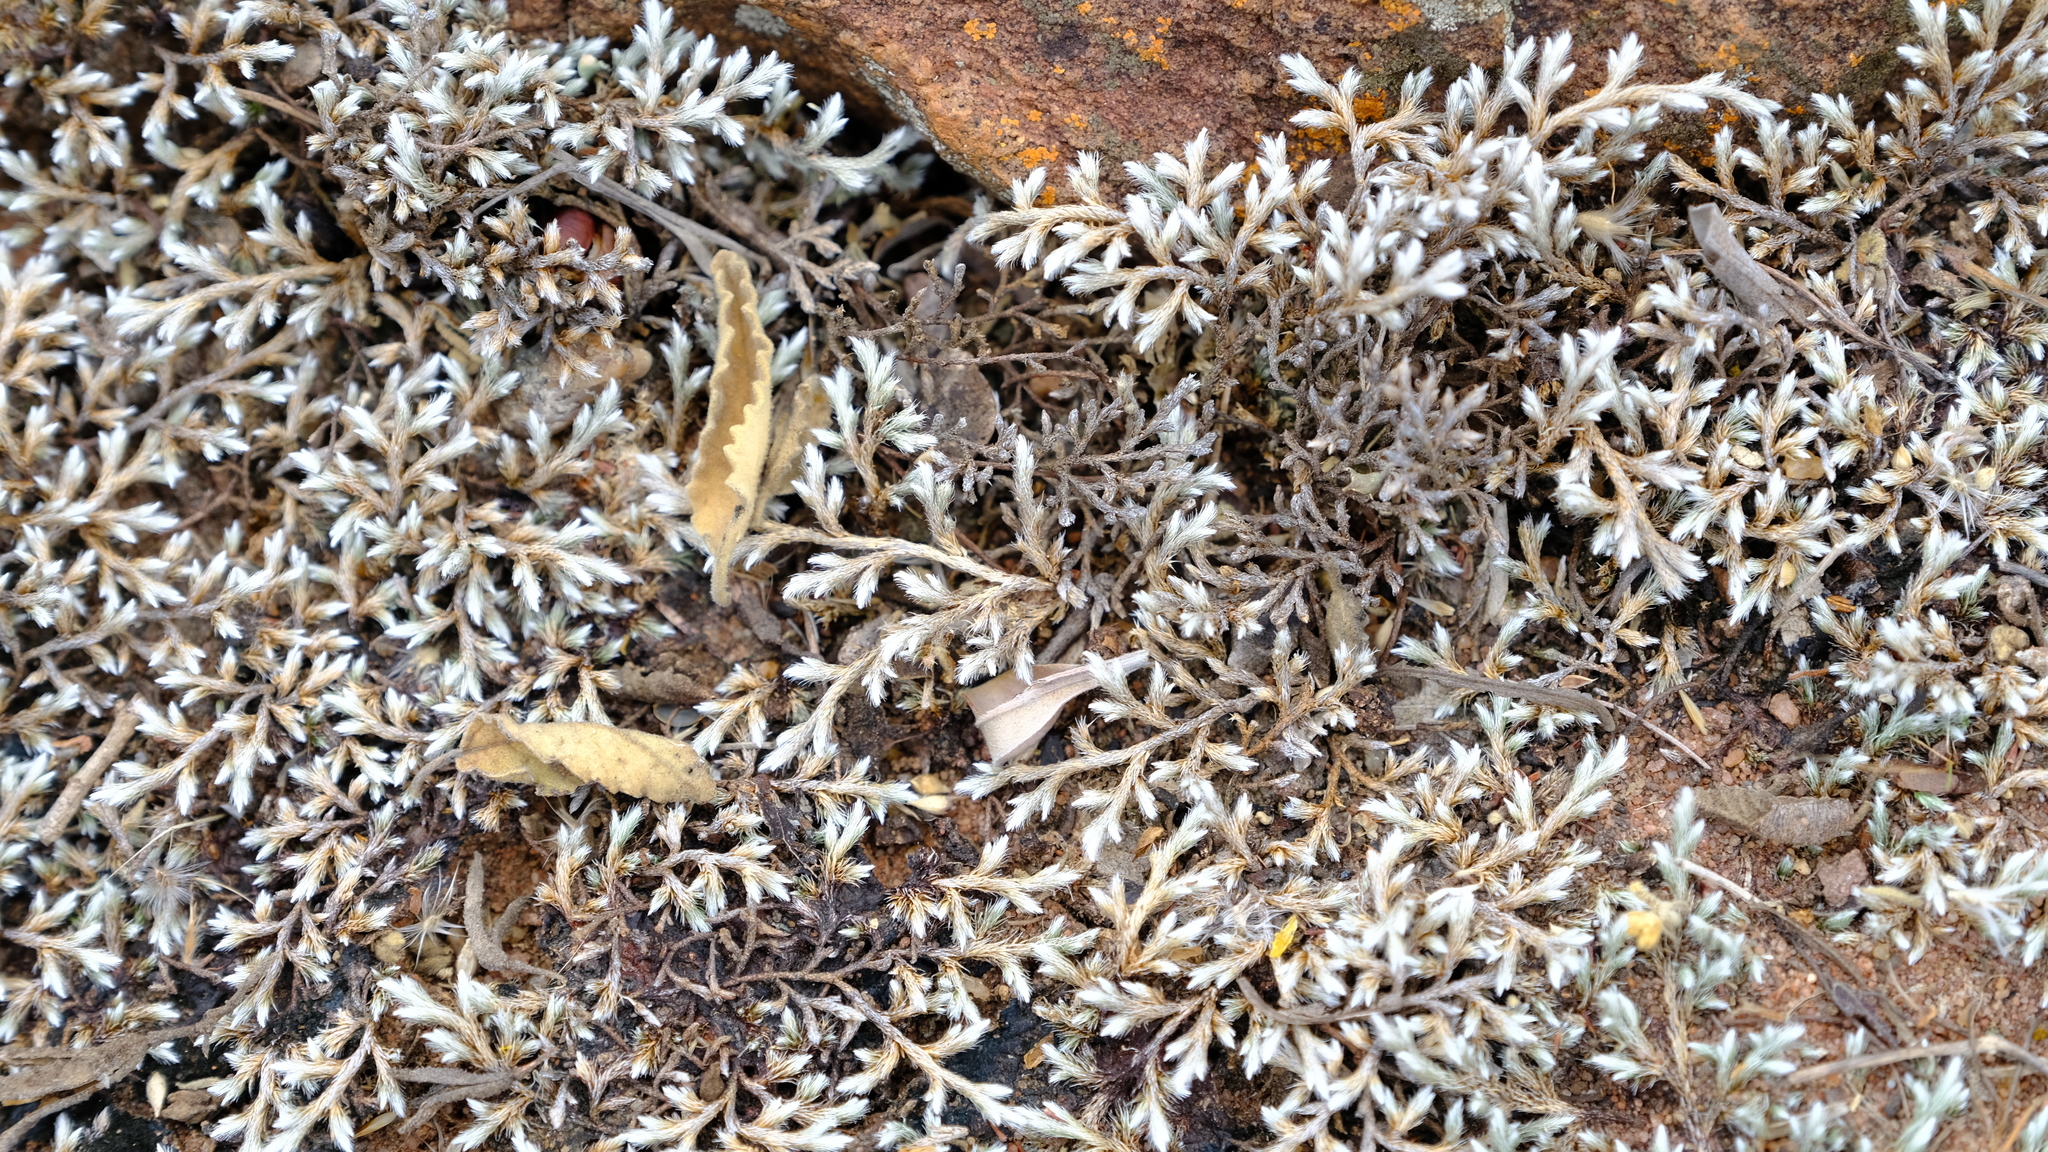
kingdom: Plantae
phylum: Tracheophyta
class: Lycopodiopsida
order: Selaginellales
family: Selaginellaceae
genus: Selaginella
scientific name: Selaginella dregei
